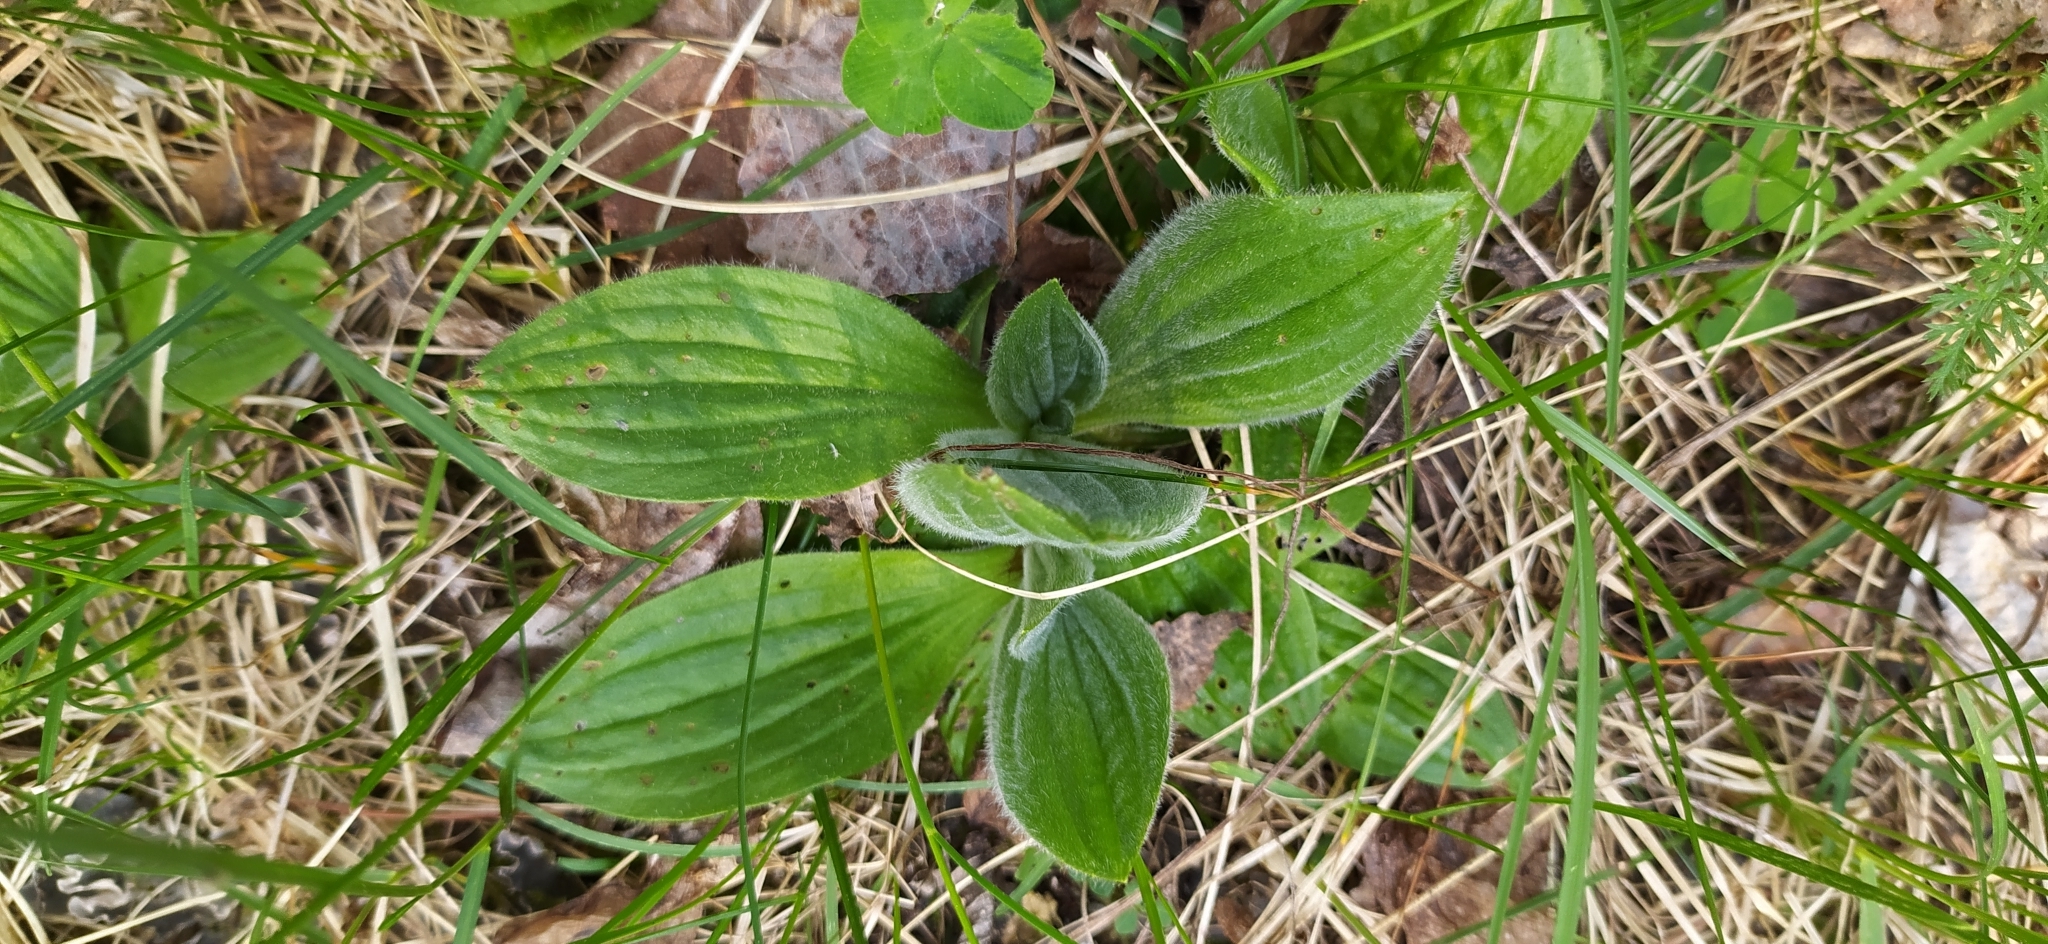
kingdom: Plantae
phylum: Tracheophyta
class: Magnoliopsida
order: Lamiales
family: Plantaginaceae
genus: Plantago
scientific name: Plantago media
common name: Hoary plantain
